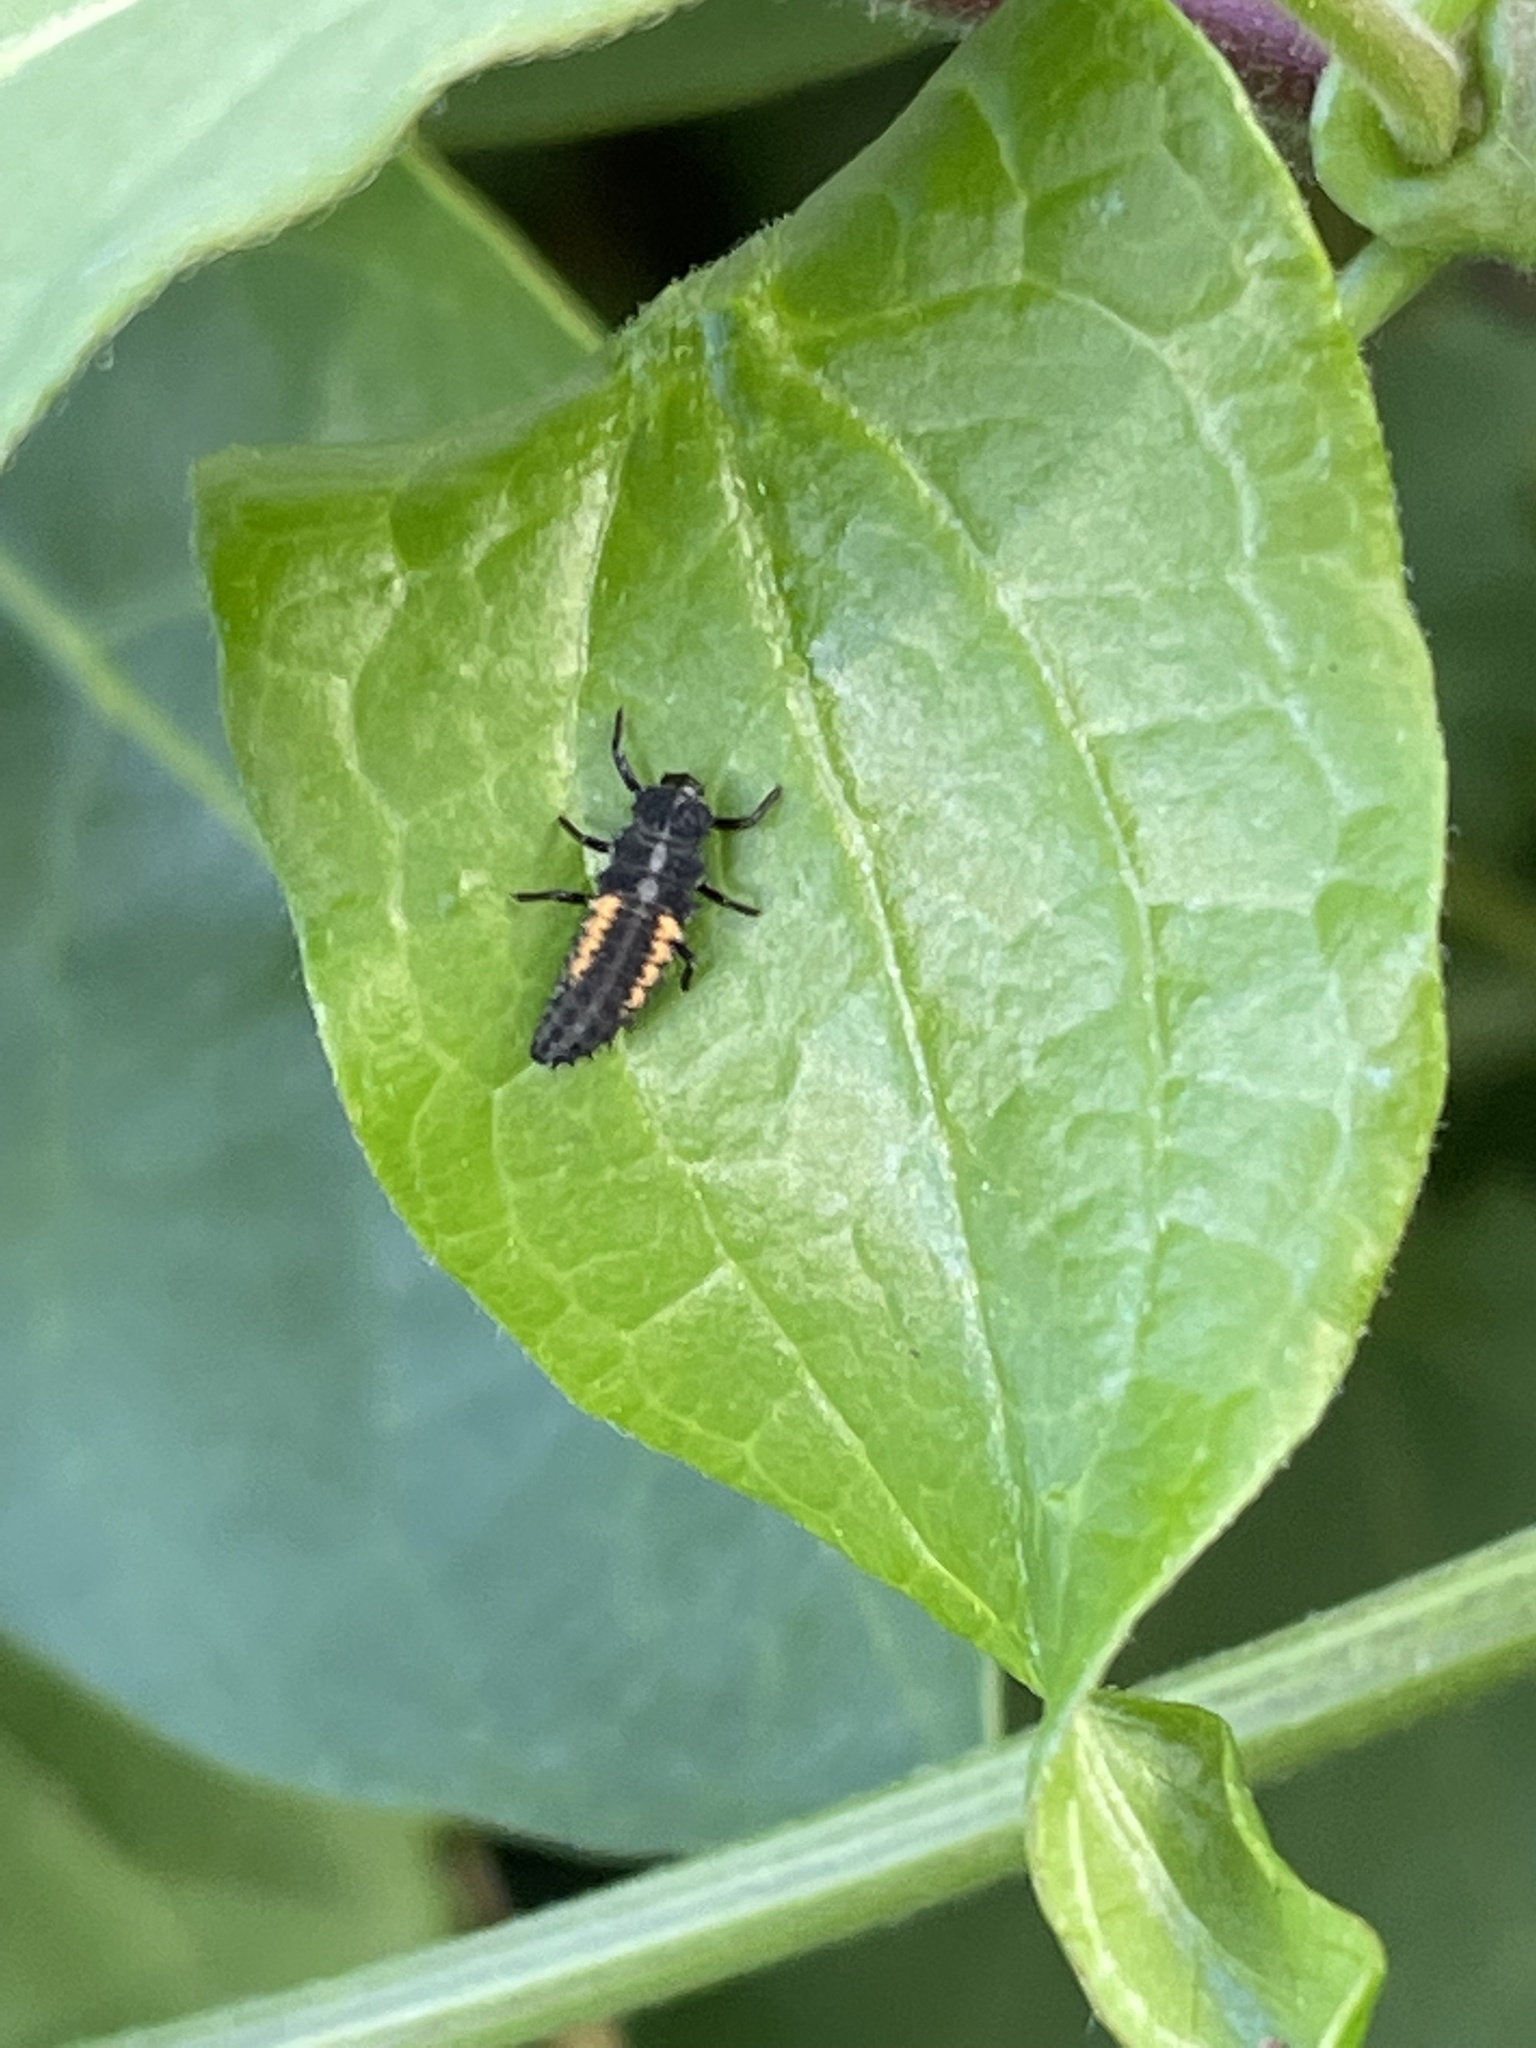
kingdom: Animalia
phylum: Arthropoda
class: Insecta
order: Coleoptera
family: Coccinellidae
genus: Harmonia
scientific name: Harmonia axyridis
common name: Harlequin ladybird
